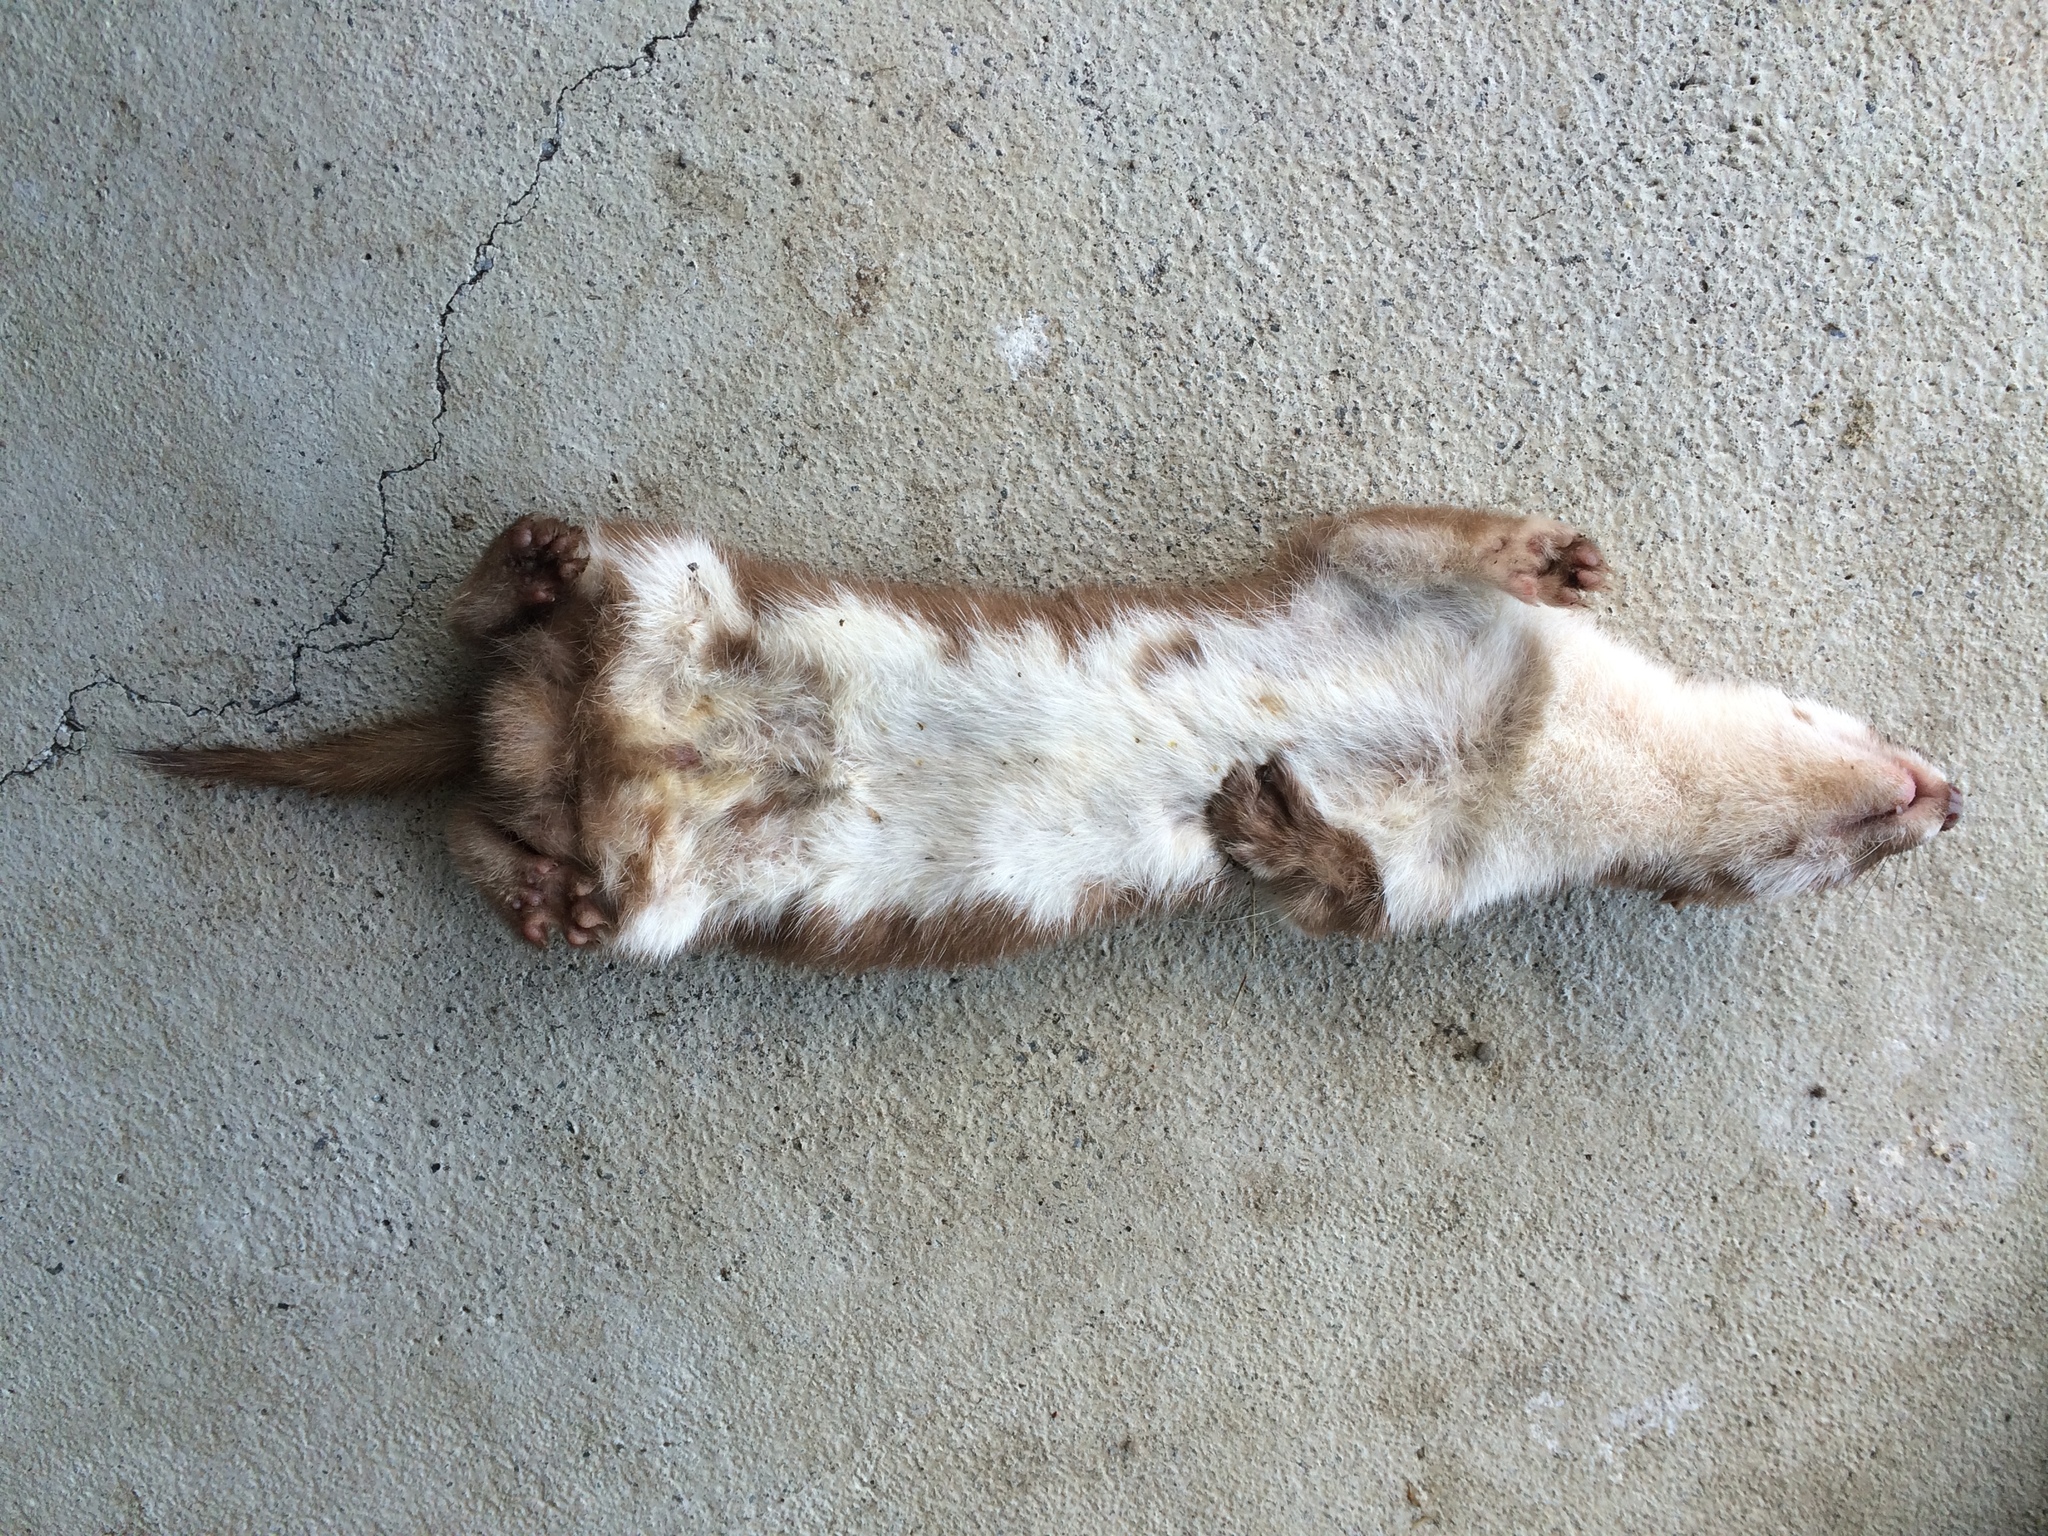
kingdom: Animalia
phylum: Chordata
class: Mammalia
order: Carnivora
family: Mustelidae
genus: Mustela
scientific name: Mustela nivalis
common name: Least weasel
